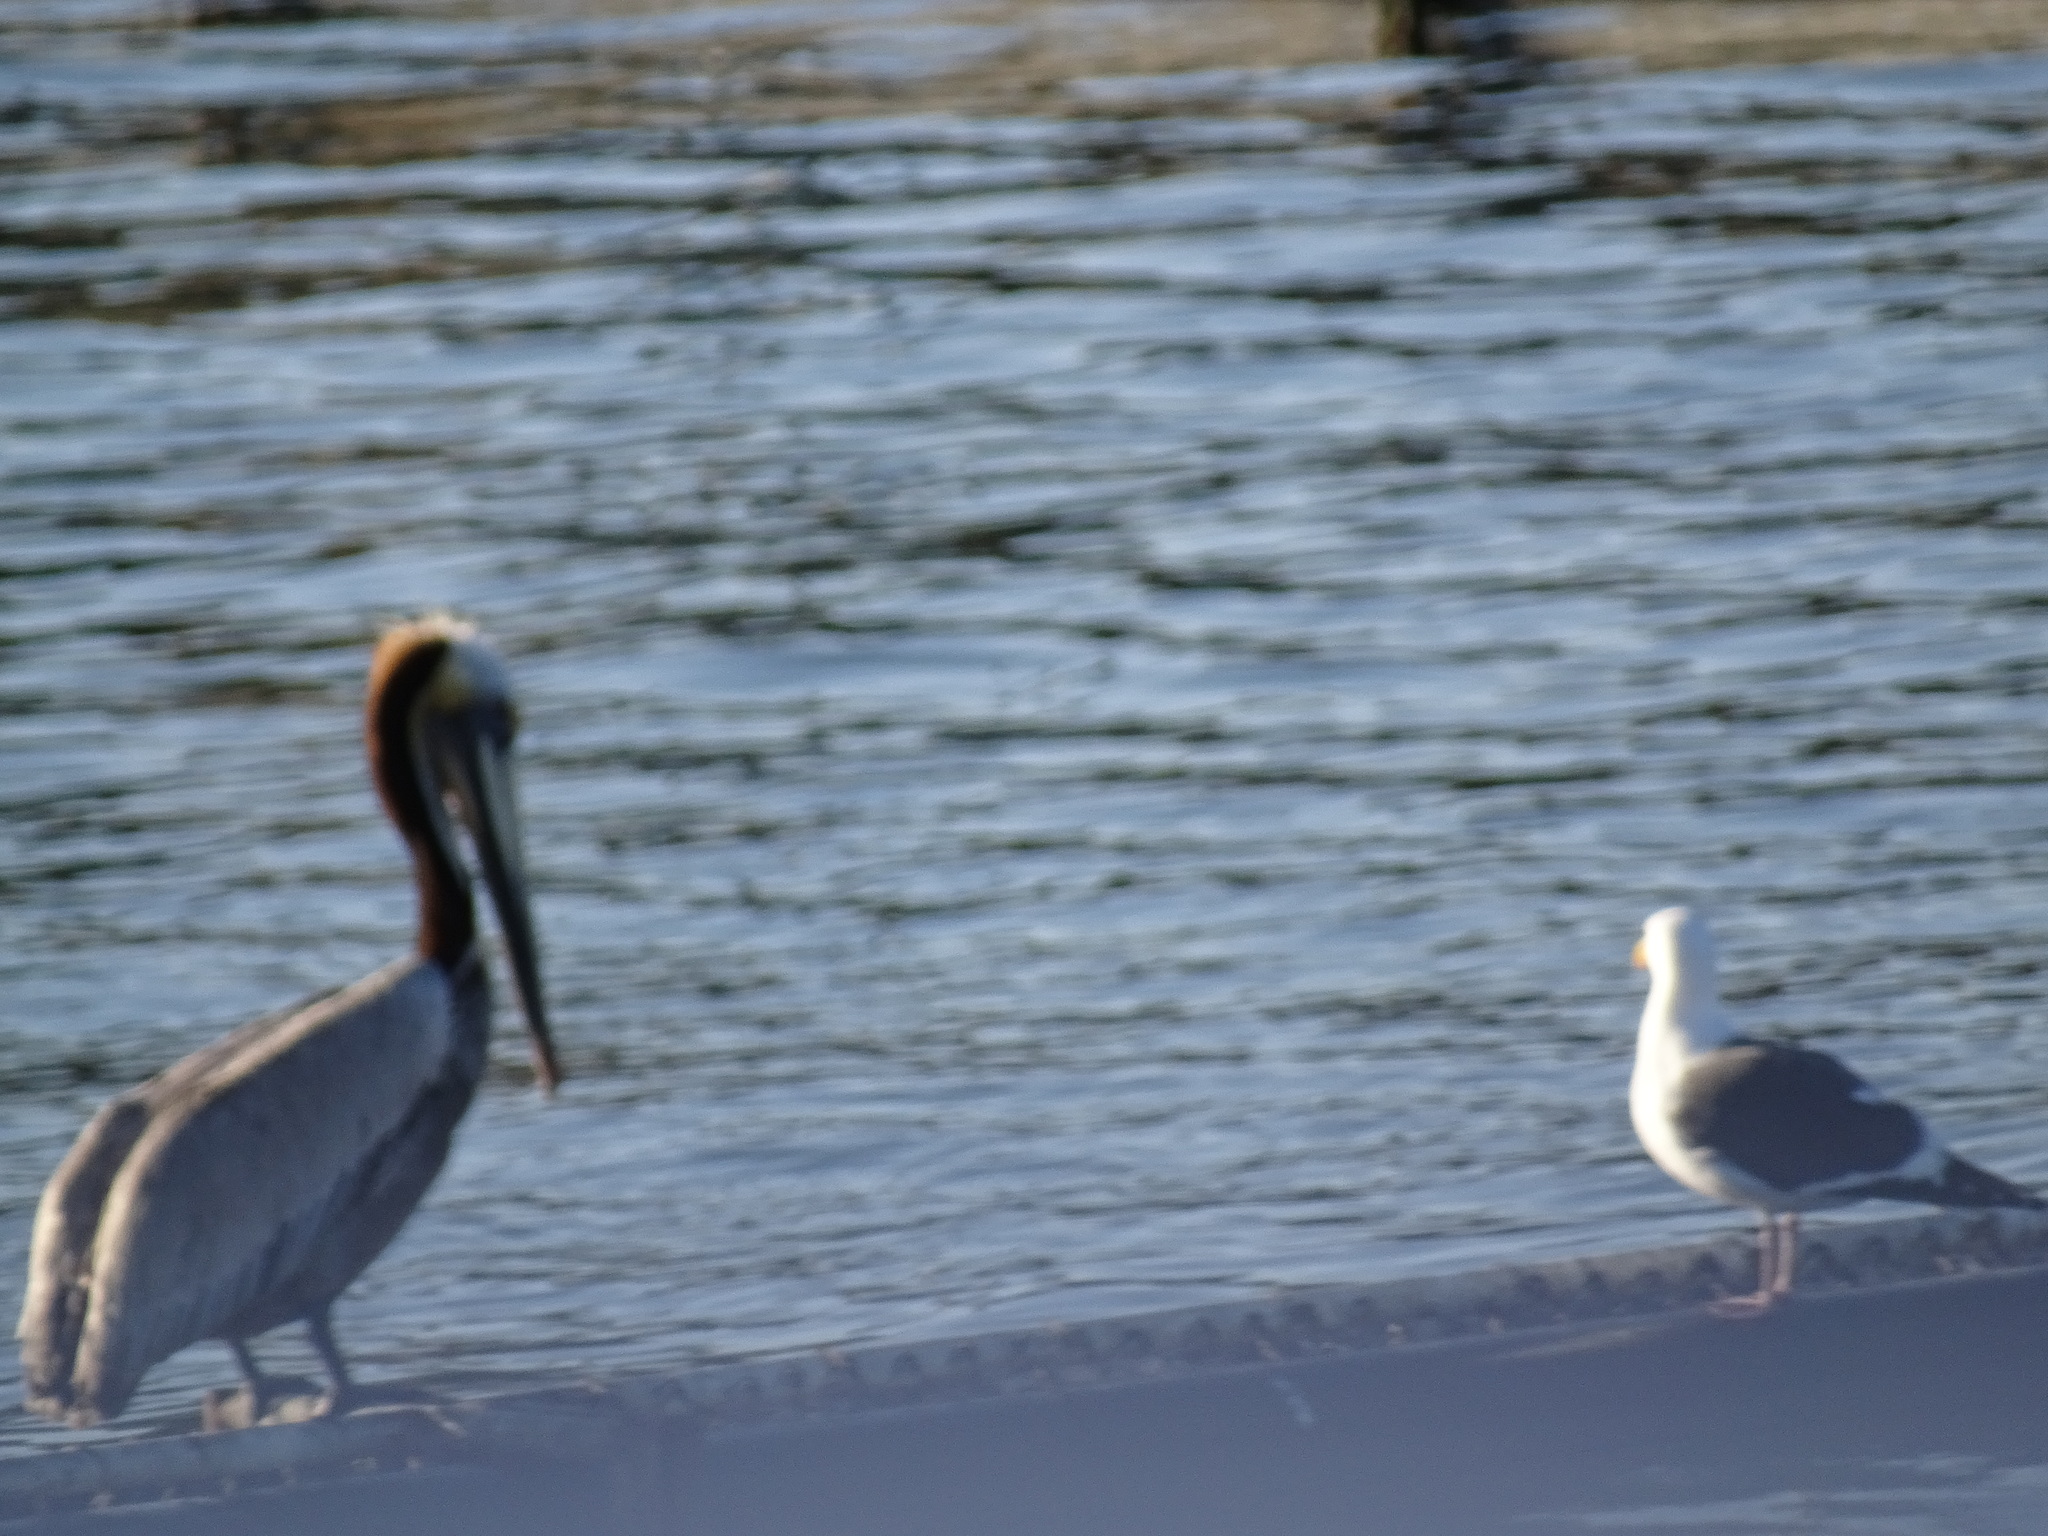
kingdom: Animalia
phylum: Chordata
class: Aves
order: Charadriiformes
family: Laridae
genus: Larus
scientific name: Larus occidentalis
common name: Western gull
